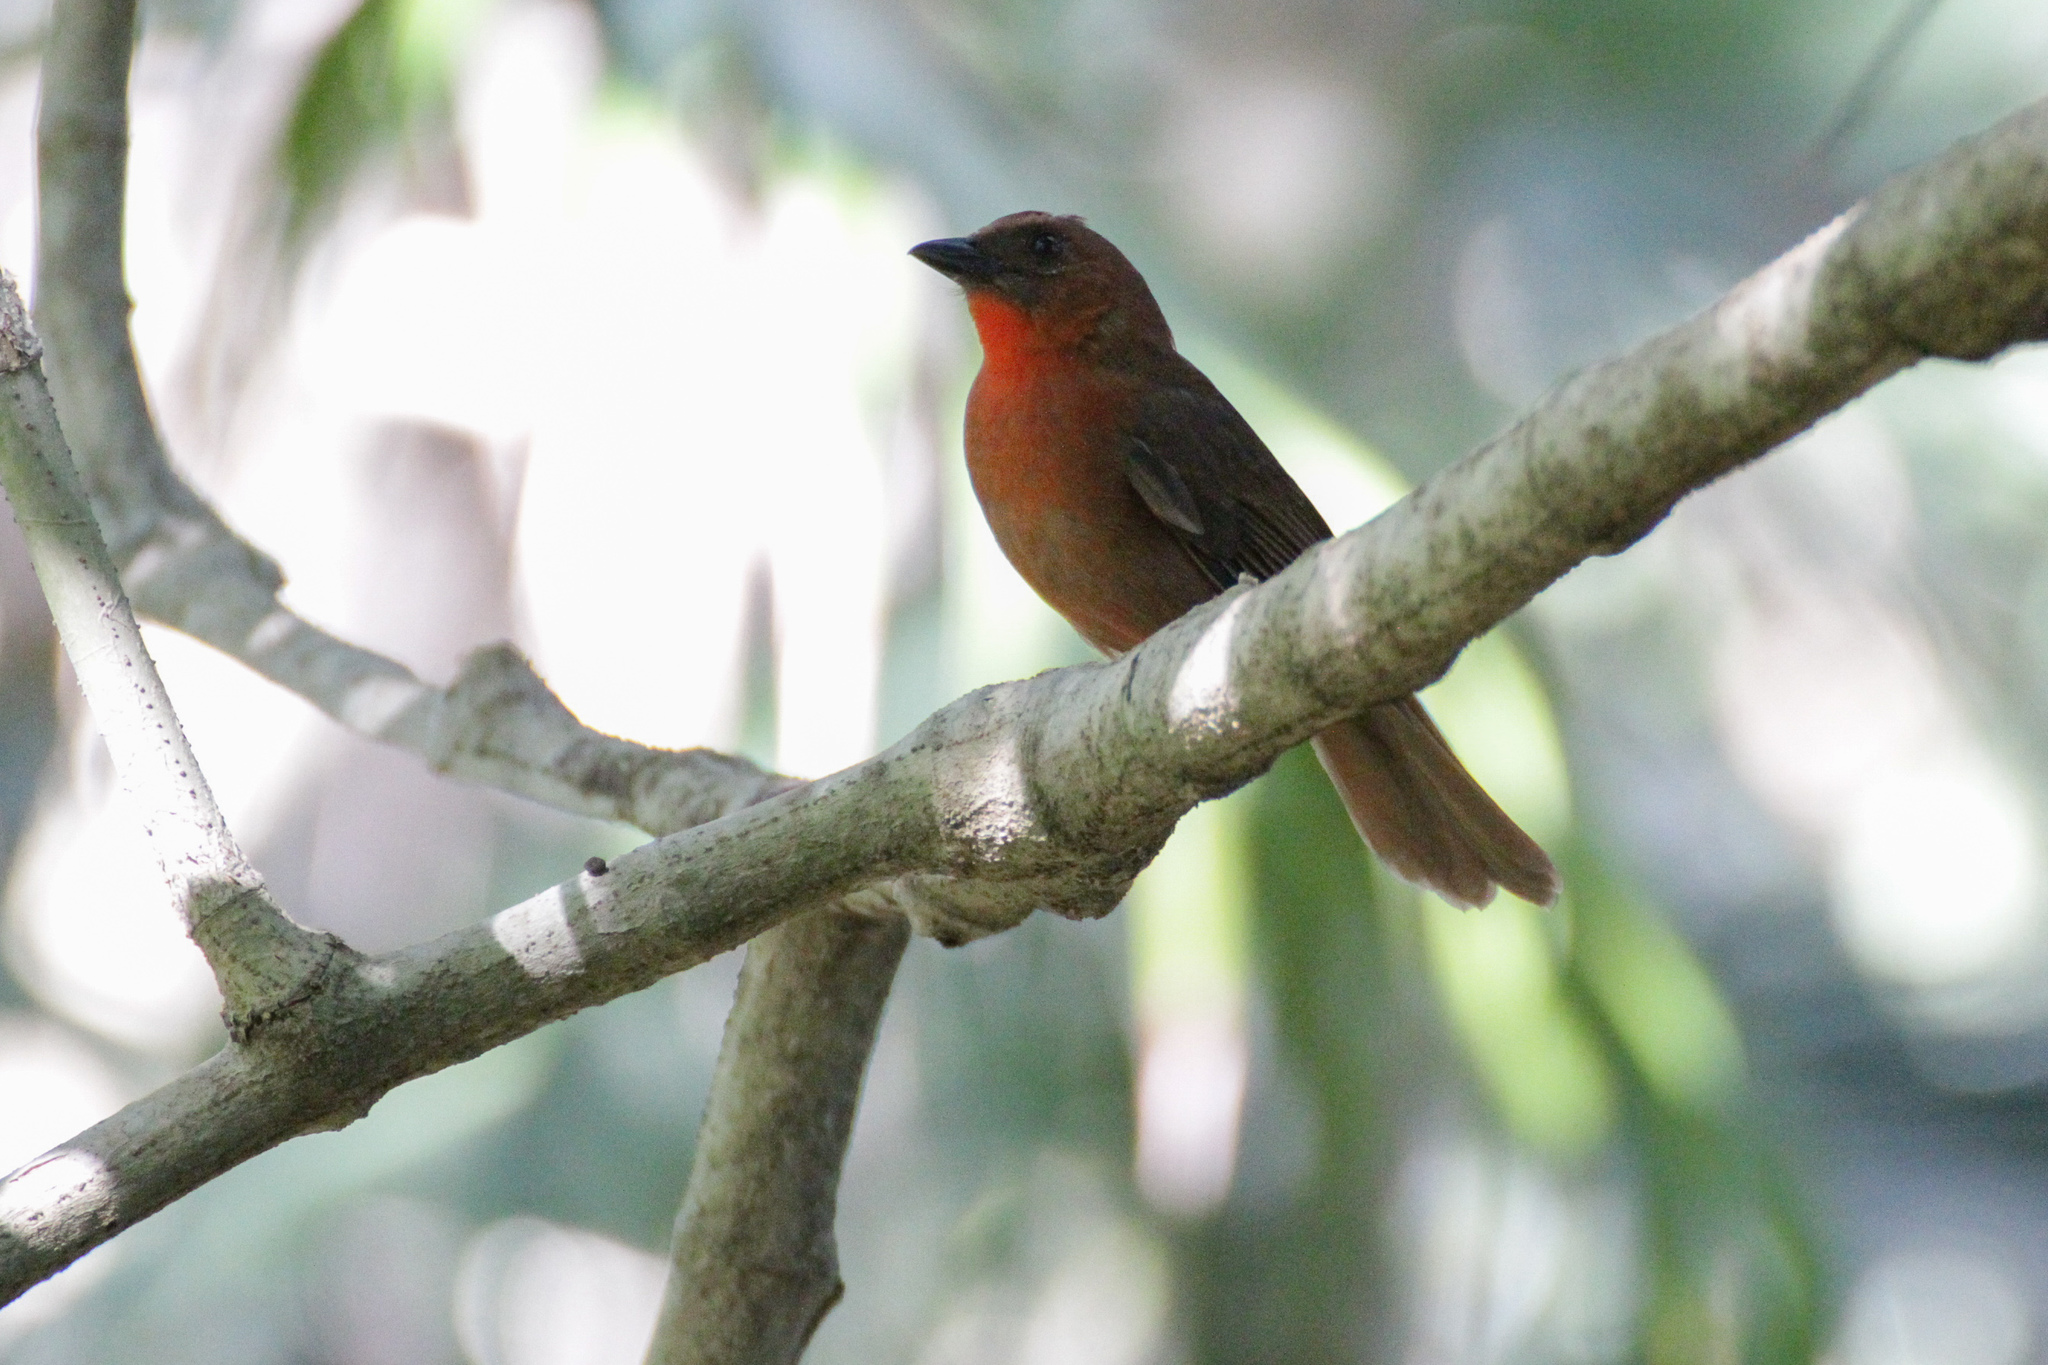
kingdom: Animalia
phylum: Chordata
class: Aves
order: Passeriformes
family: Cardinalidae
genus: Habia
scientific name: Habia fuscicauda
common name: Red-throated ant-tanager
